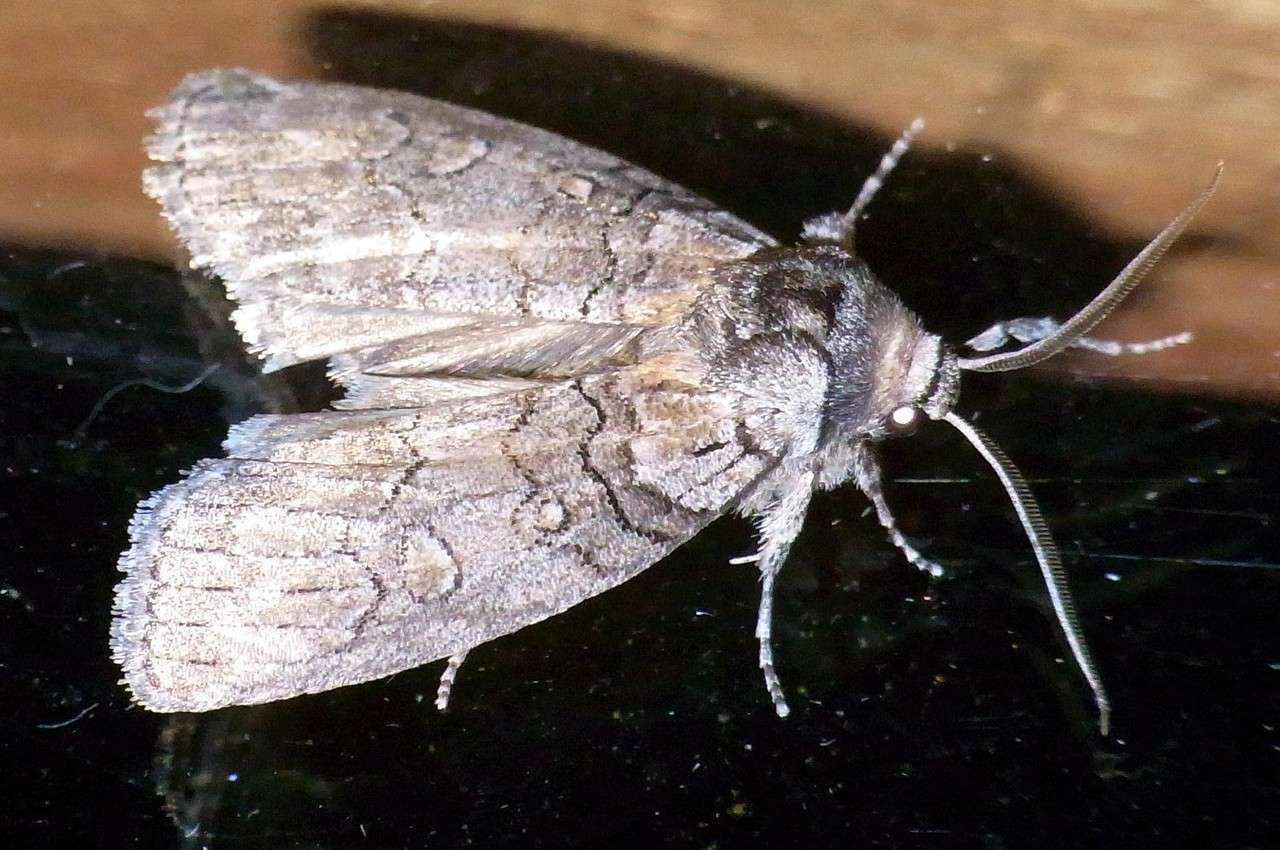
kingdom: Animalia
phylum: Arthropoda
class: Insecta
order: Lepidoptera
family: Oenosandridae
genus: Discophlebia
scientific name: Discophlebia celaena
